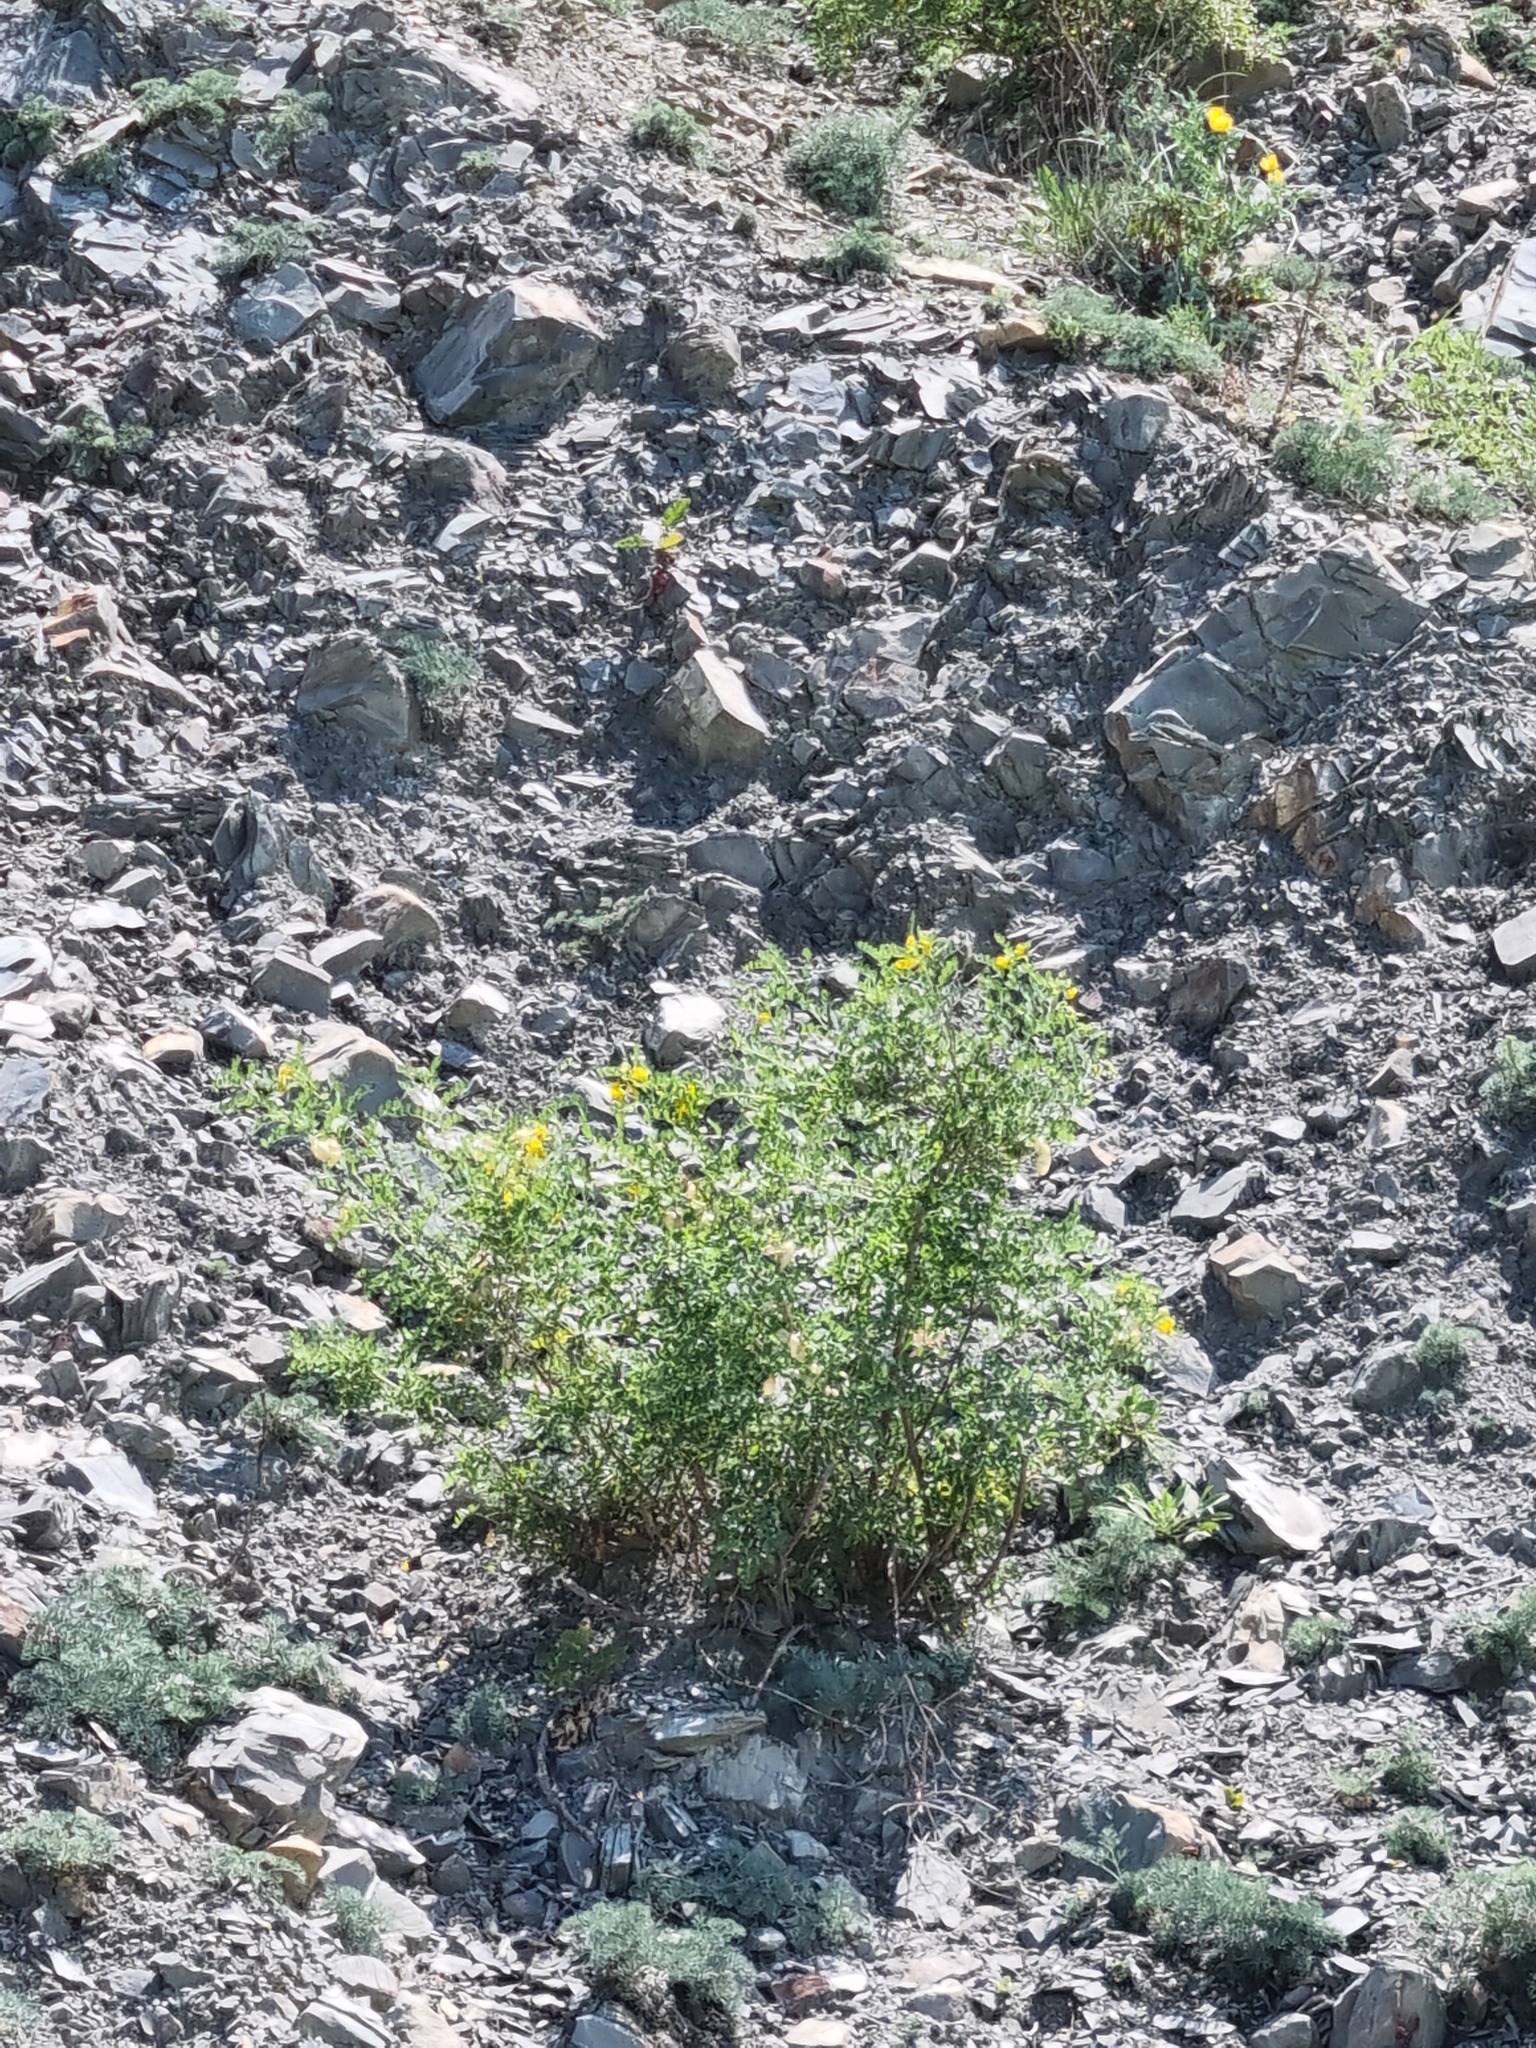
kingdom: Plantae
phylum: Tracheophyta
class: Magnoliopsida
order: Fabales
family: Fabaceae
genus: Colutea
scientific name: Colutea cilicica
